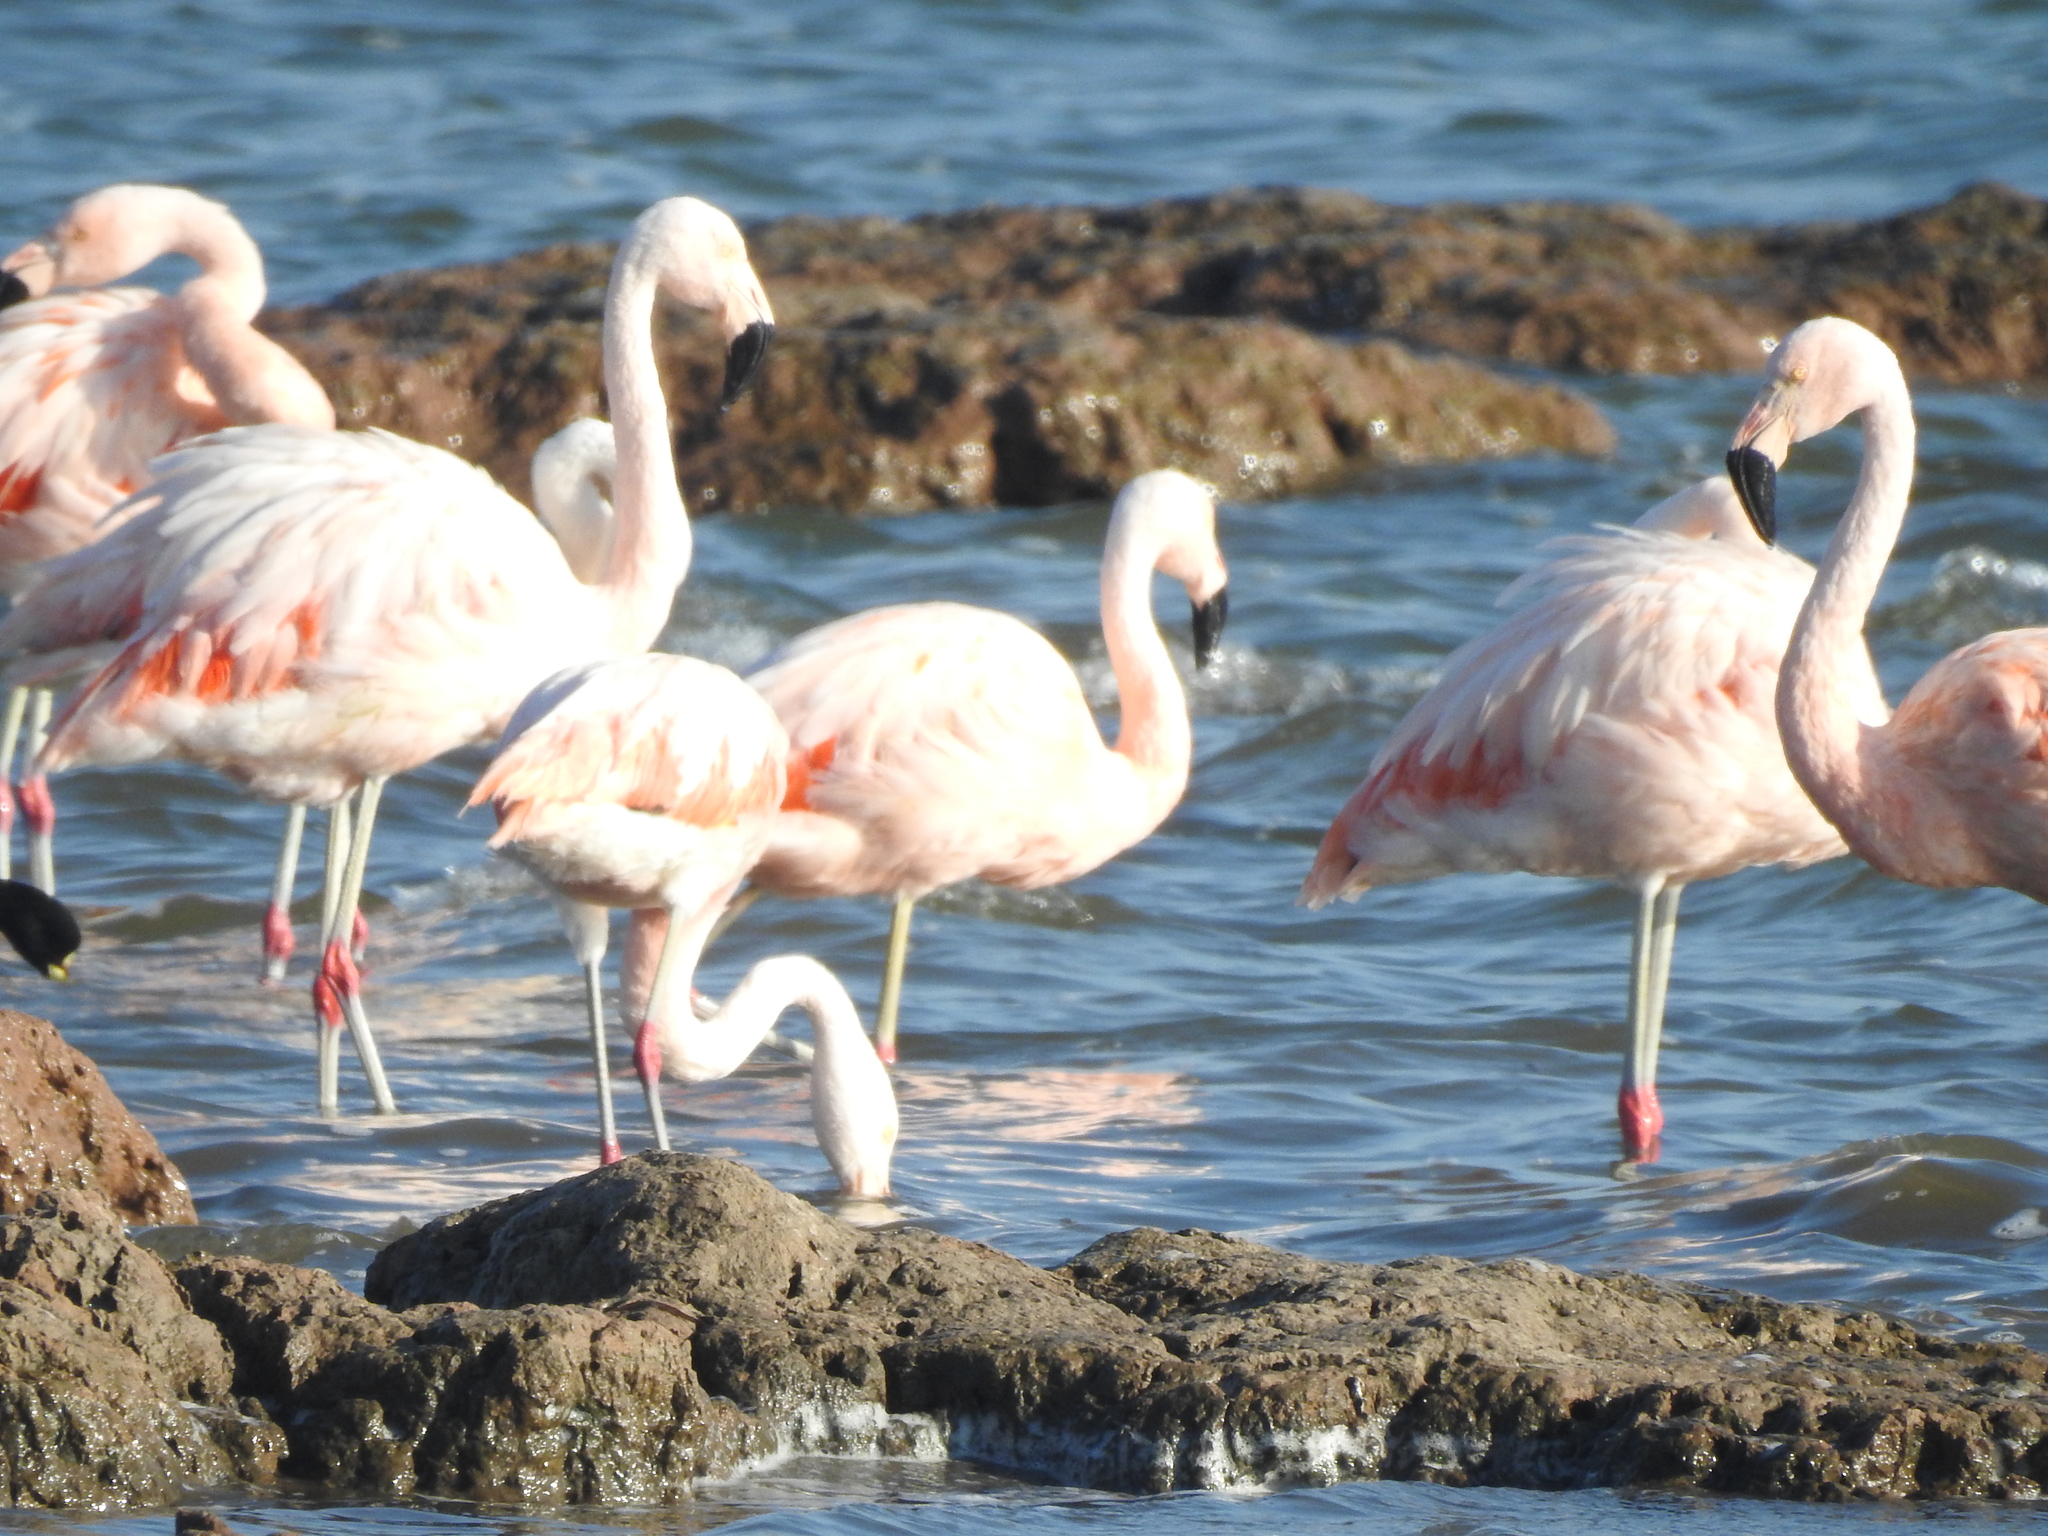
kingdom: Animalia
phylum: Chordata
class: Aves
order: Phoenicopteriformes
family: Phoenicopteridae
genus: Phoenicopterus
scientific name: Phoenicopterus chilensis
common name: Chilean flamingo
